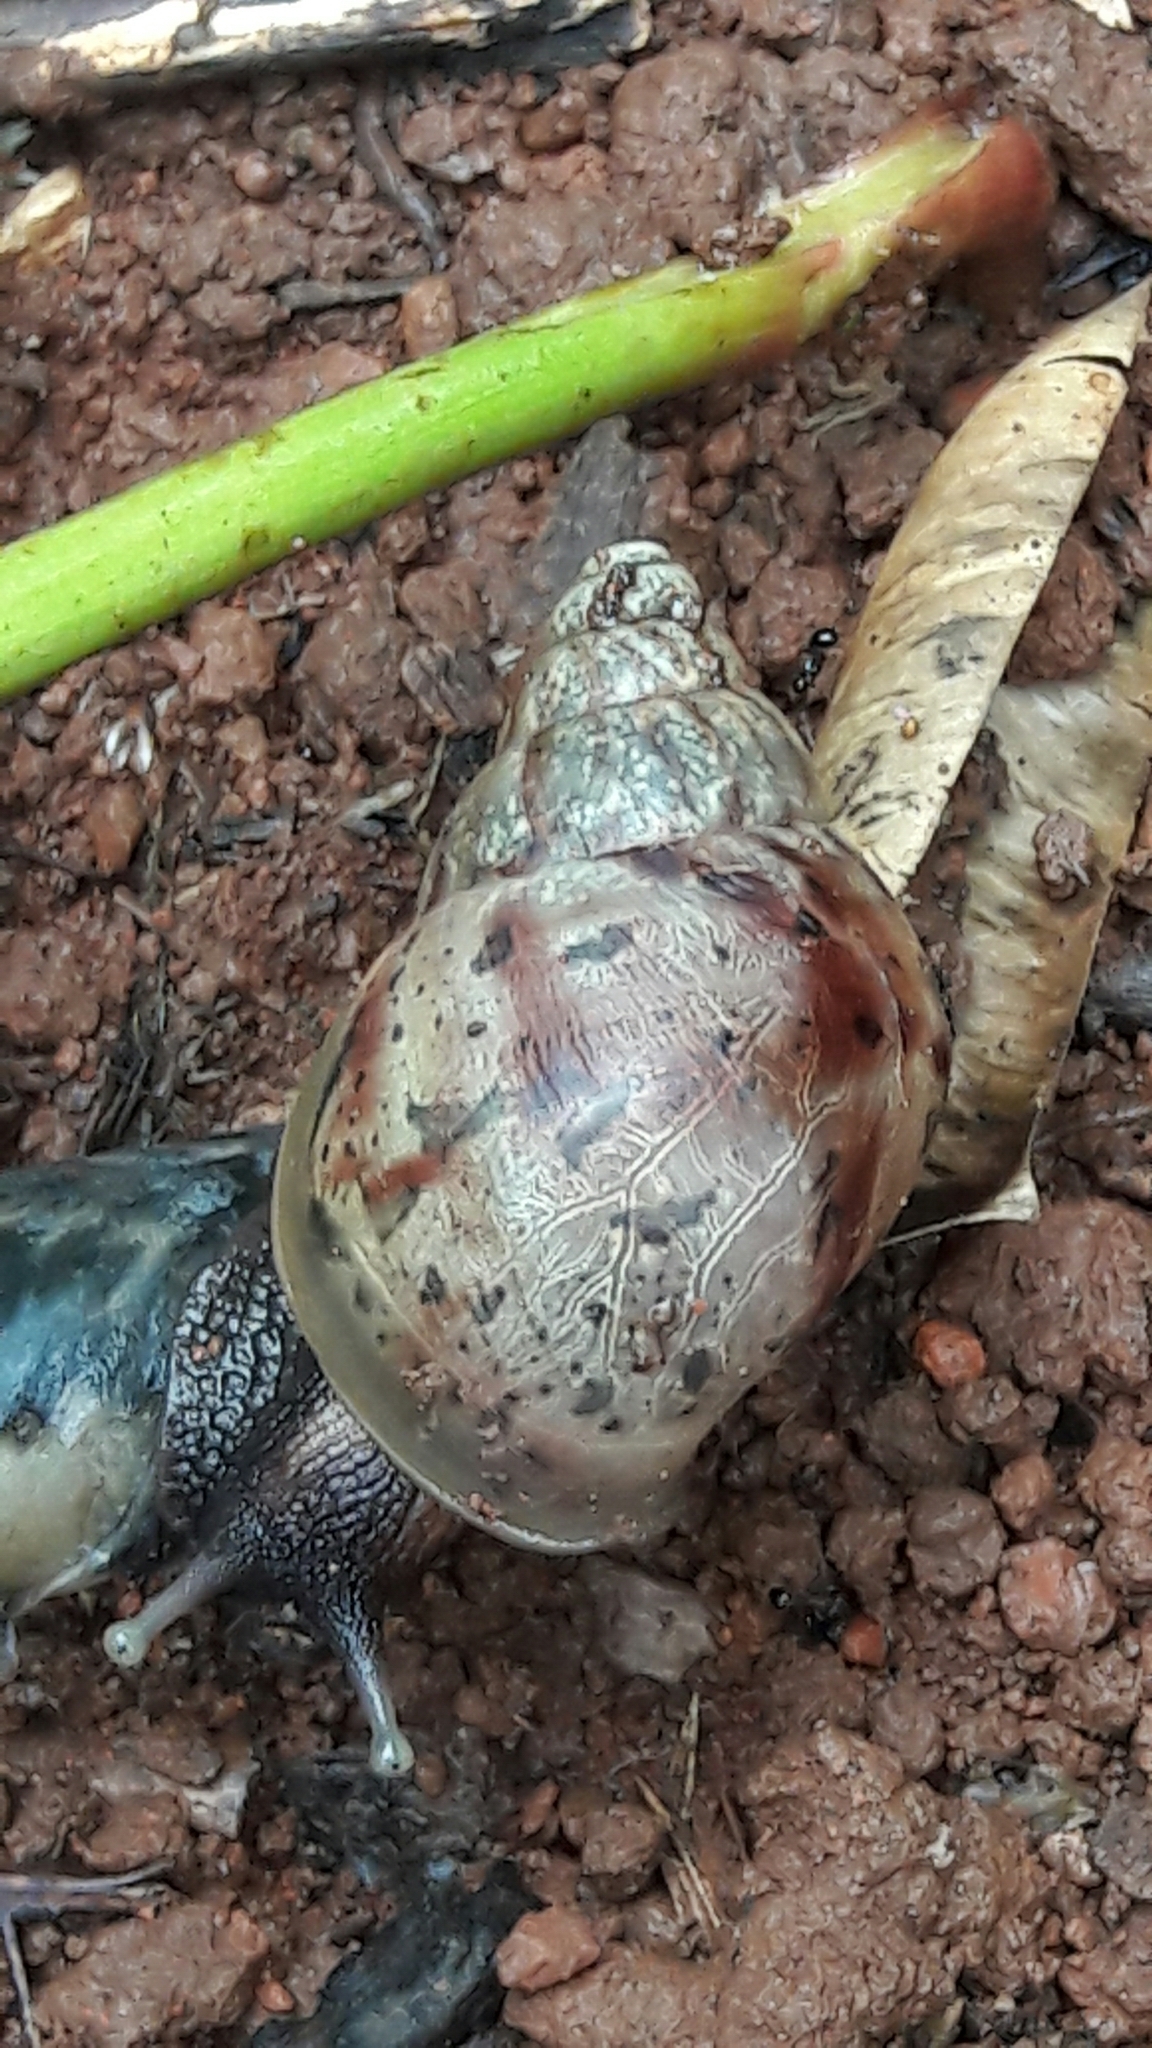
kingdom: Animalia
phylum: Mollusca
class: Gastropoda
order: Stylommatophora
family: Achatinidae
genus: Lissachatina
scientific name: Lissachatina fulica
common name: Giant african snail
